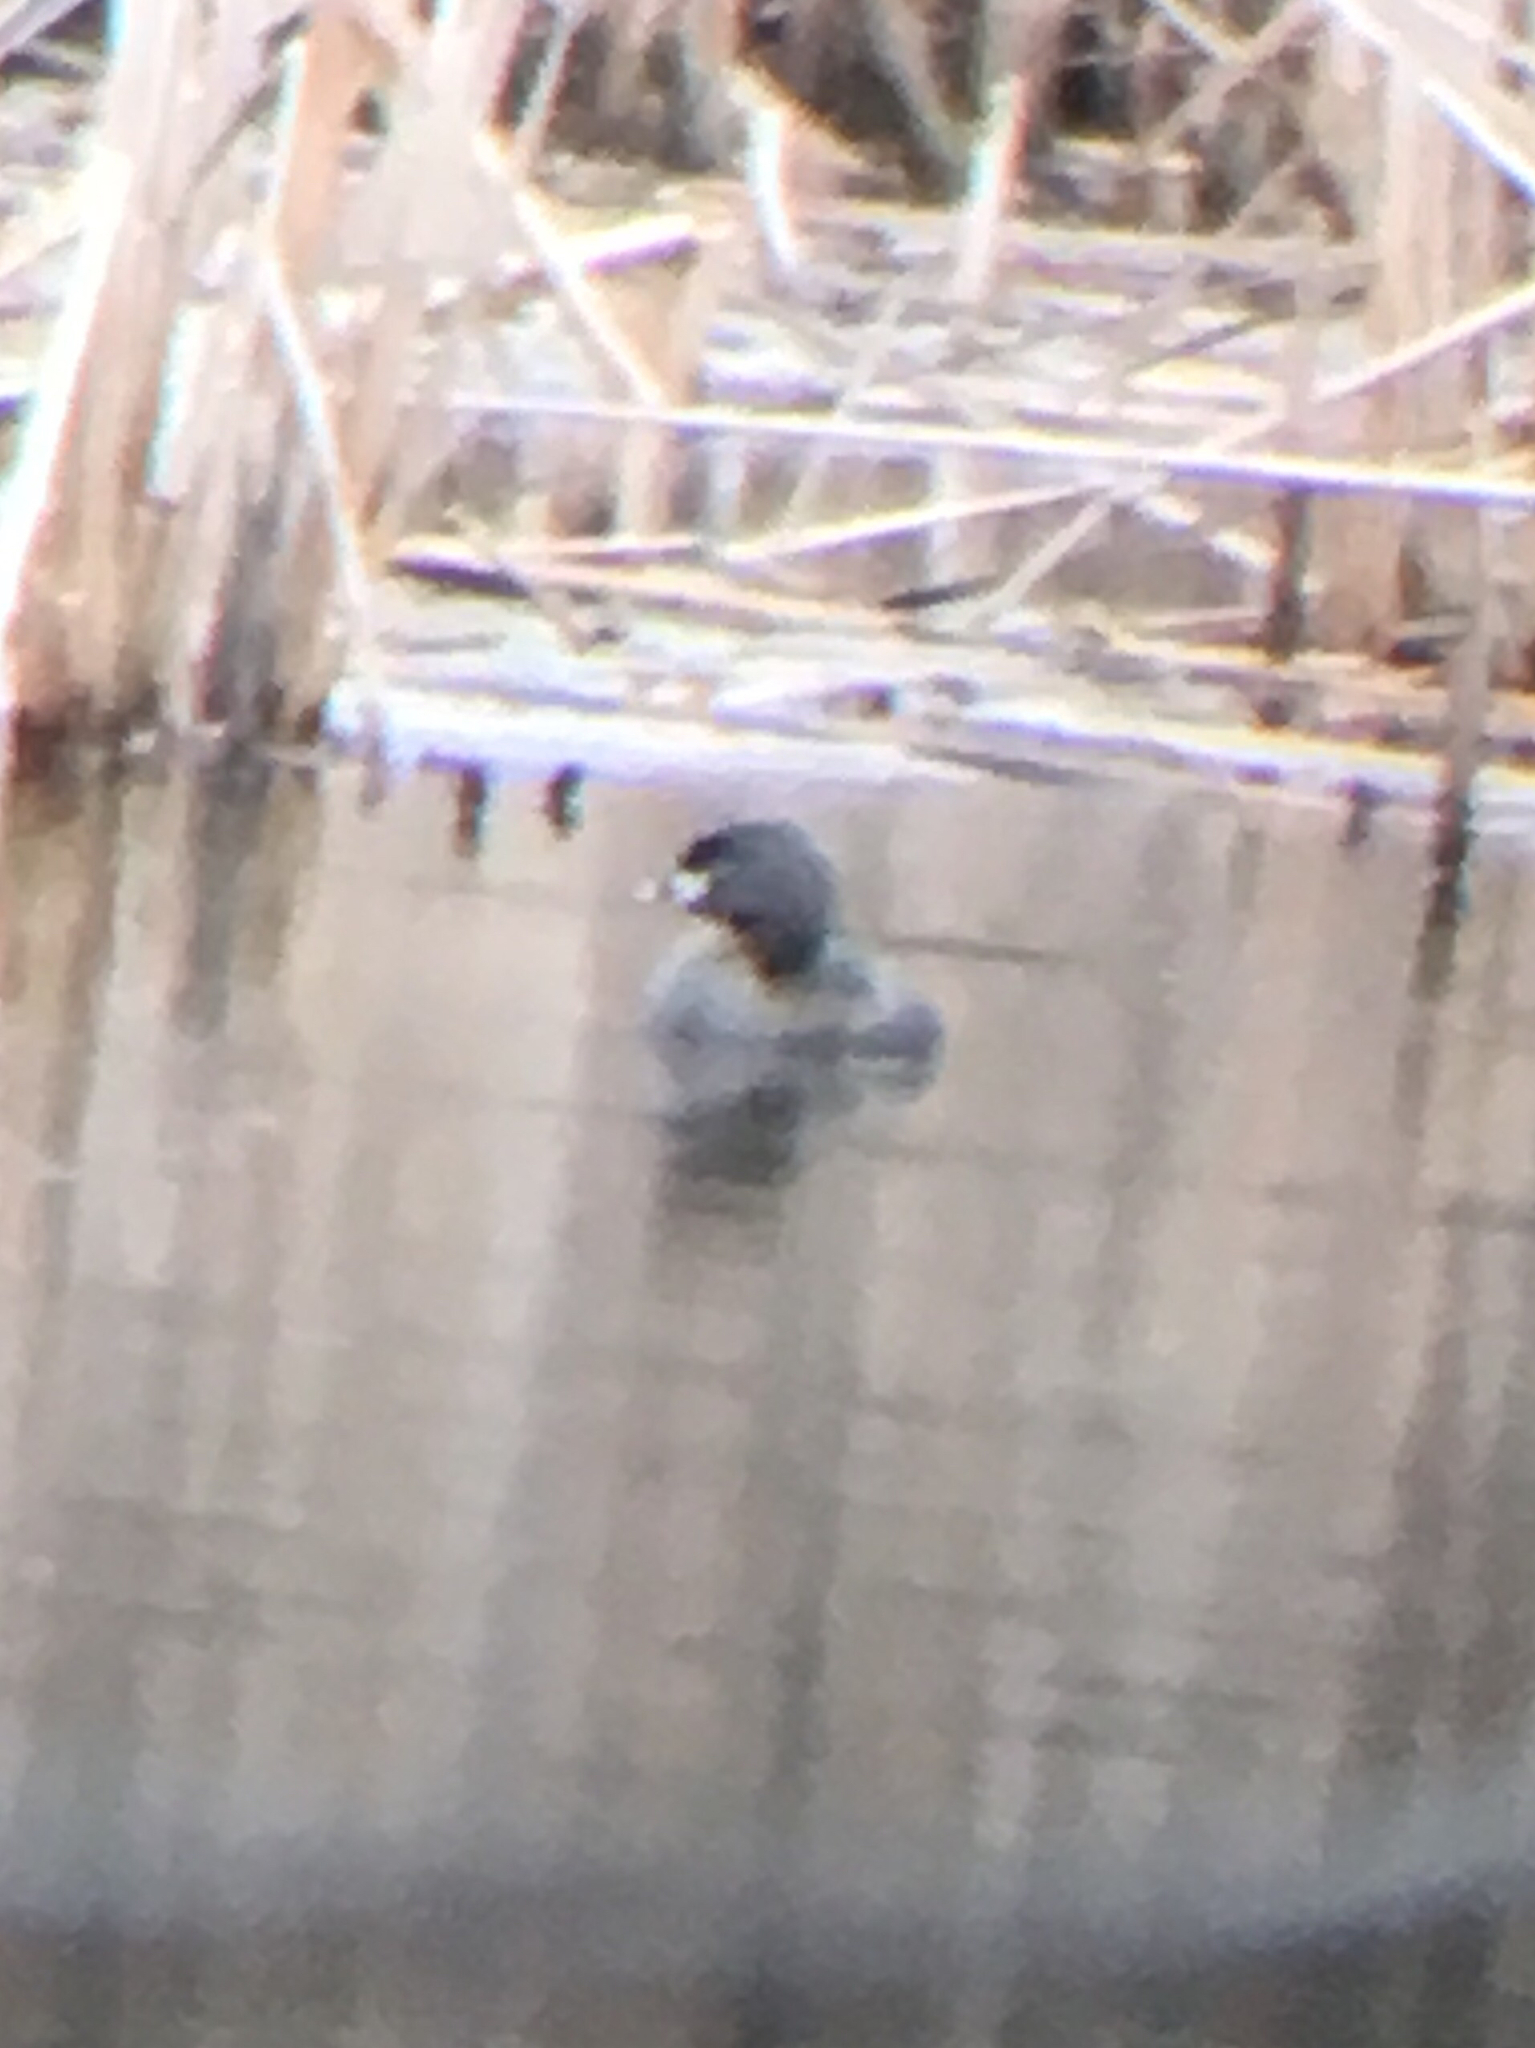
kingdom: Animalia
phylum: Chordata
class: Aves
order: Podicipediformes
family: Podicipedidae
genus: Podilymbus
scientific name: Podilymbus podiceps
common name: Pied-billed grebe
